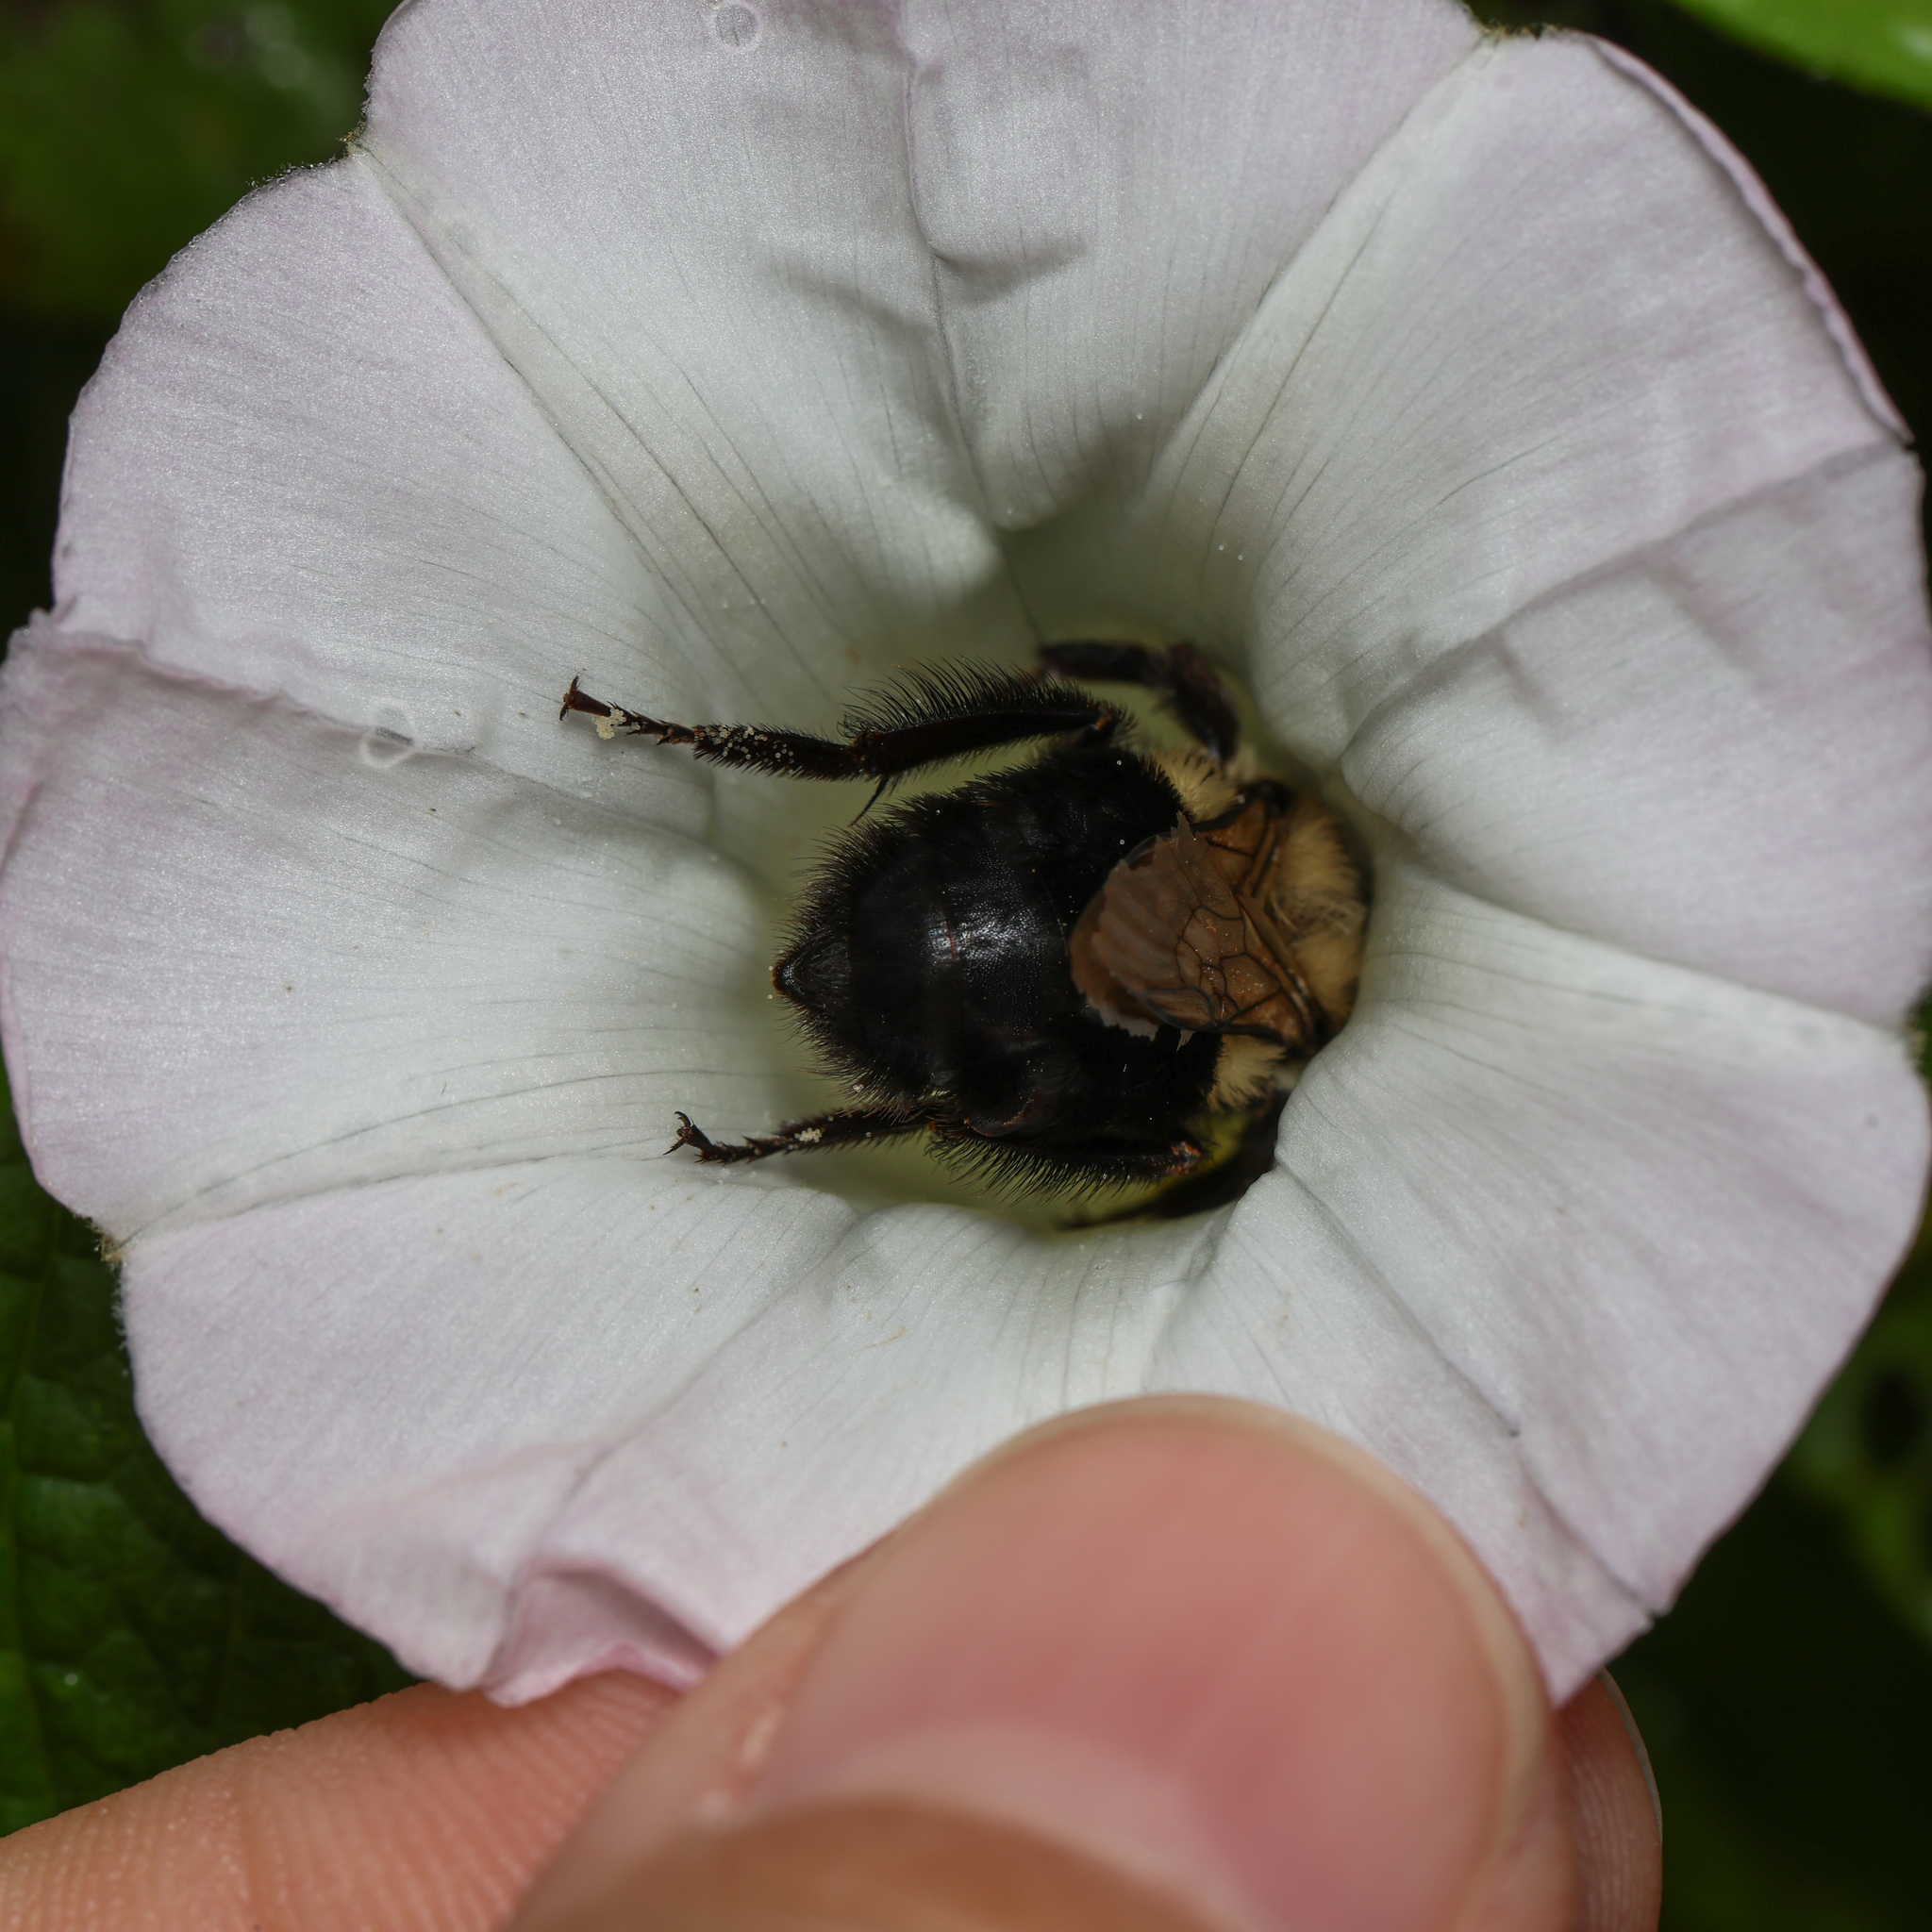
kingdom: Animalia
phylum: Arthropoda
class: Insecta
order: Hymenoptera
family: Apidae
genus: Bombus
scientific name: Bombus impatiens
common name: Common eastern bumble bee
